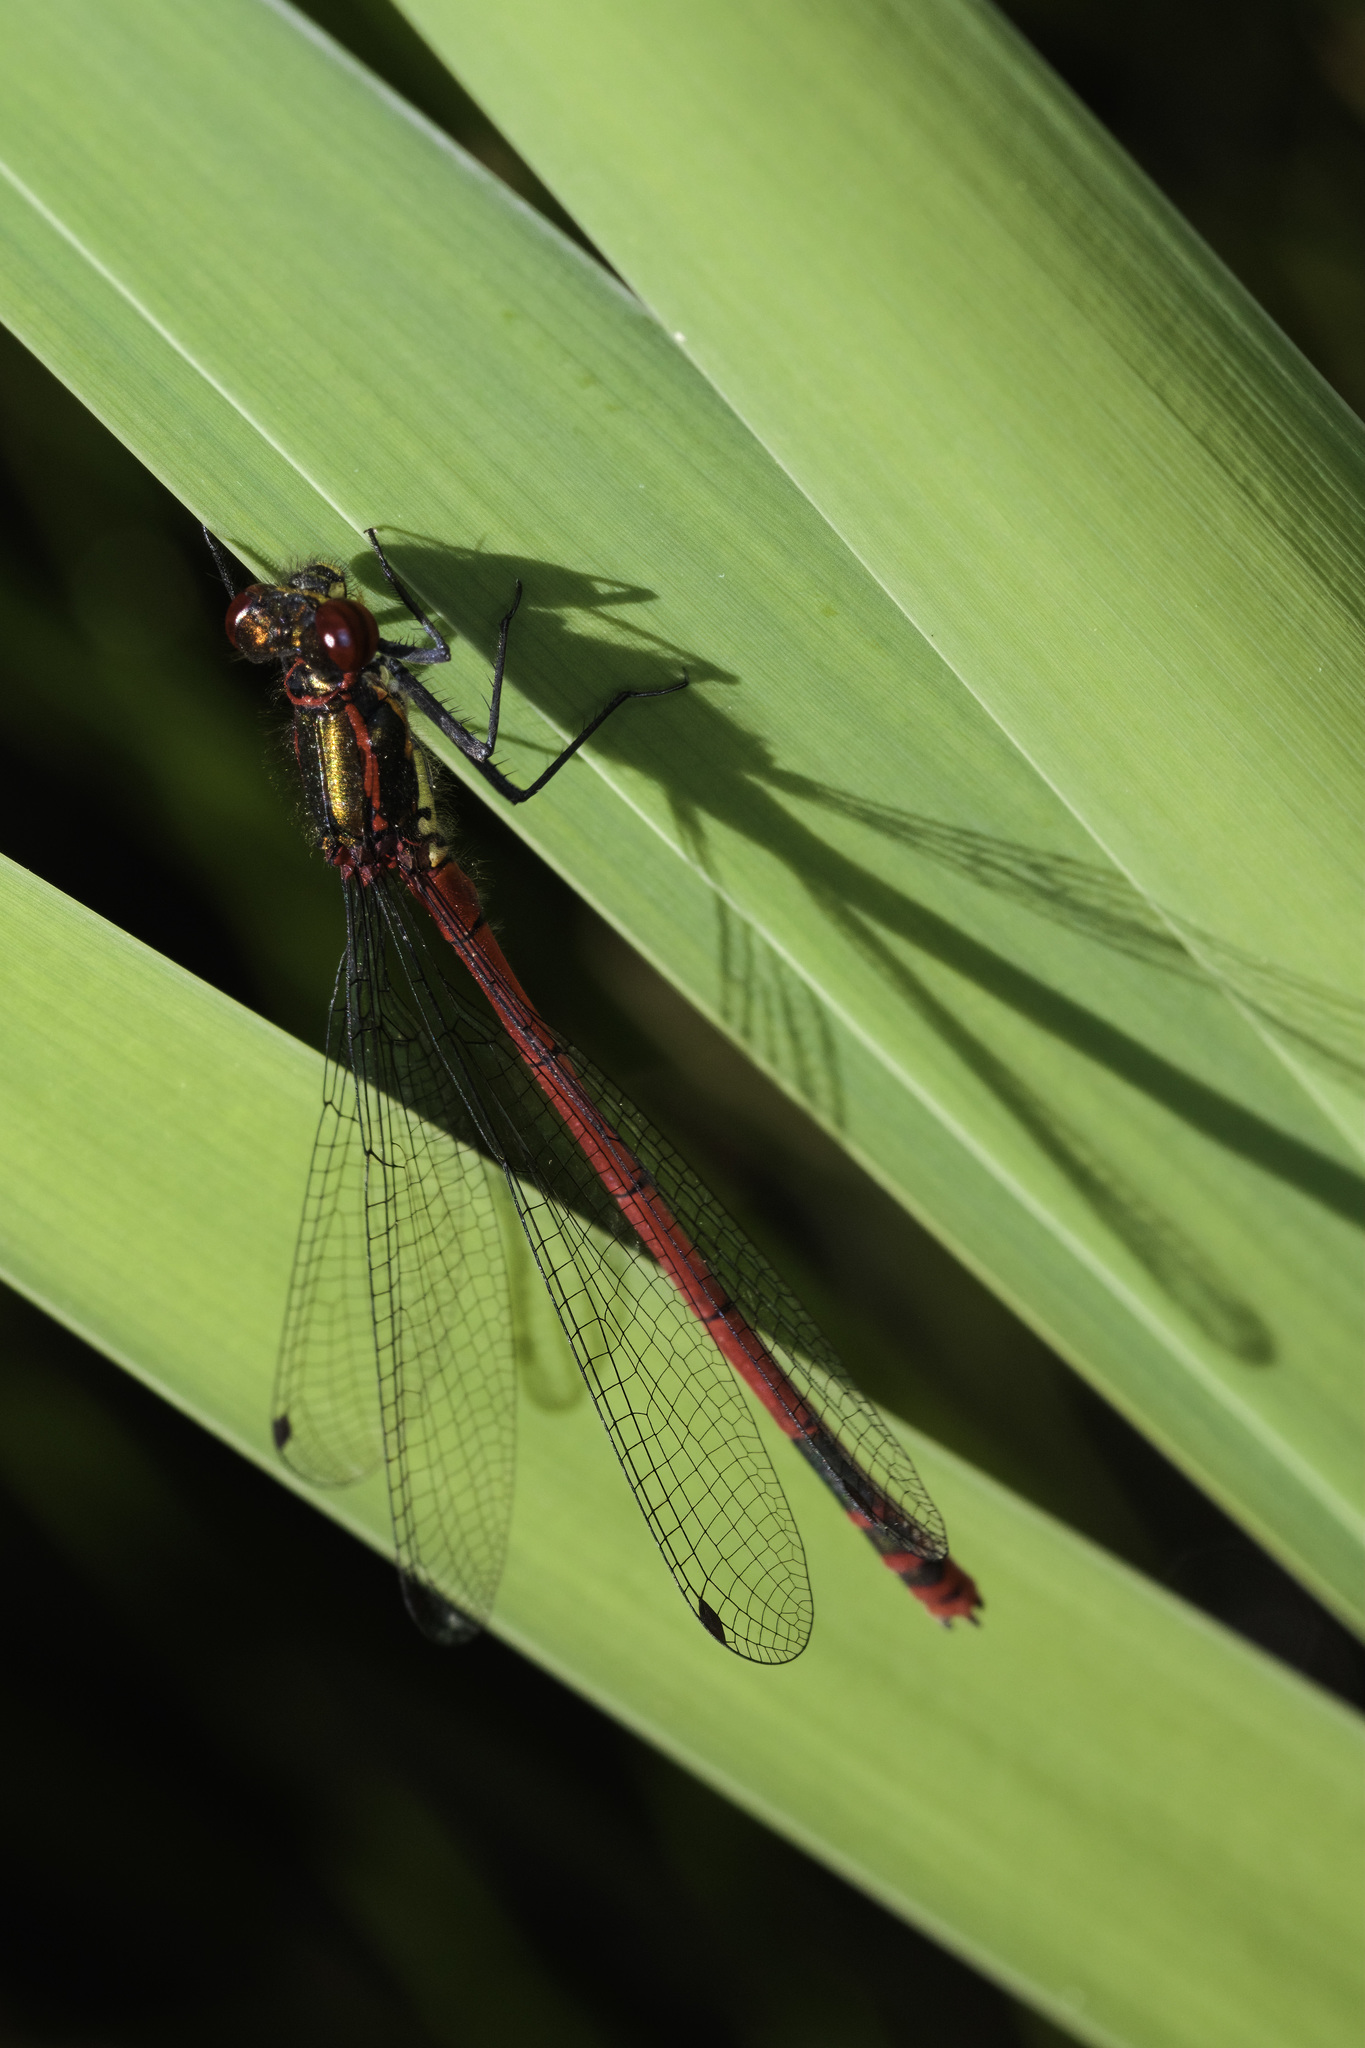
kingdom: Animalia
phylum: Arthropoda
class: Insecta
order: Odonata
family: Coenagrionidae
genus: Pyrrhosoma
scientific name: Pyrrhosoma nymphula
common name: Large red damsel
